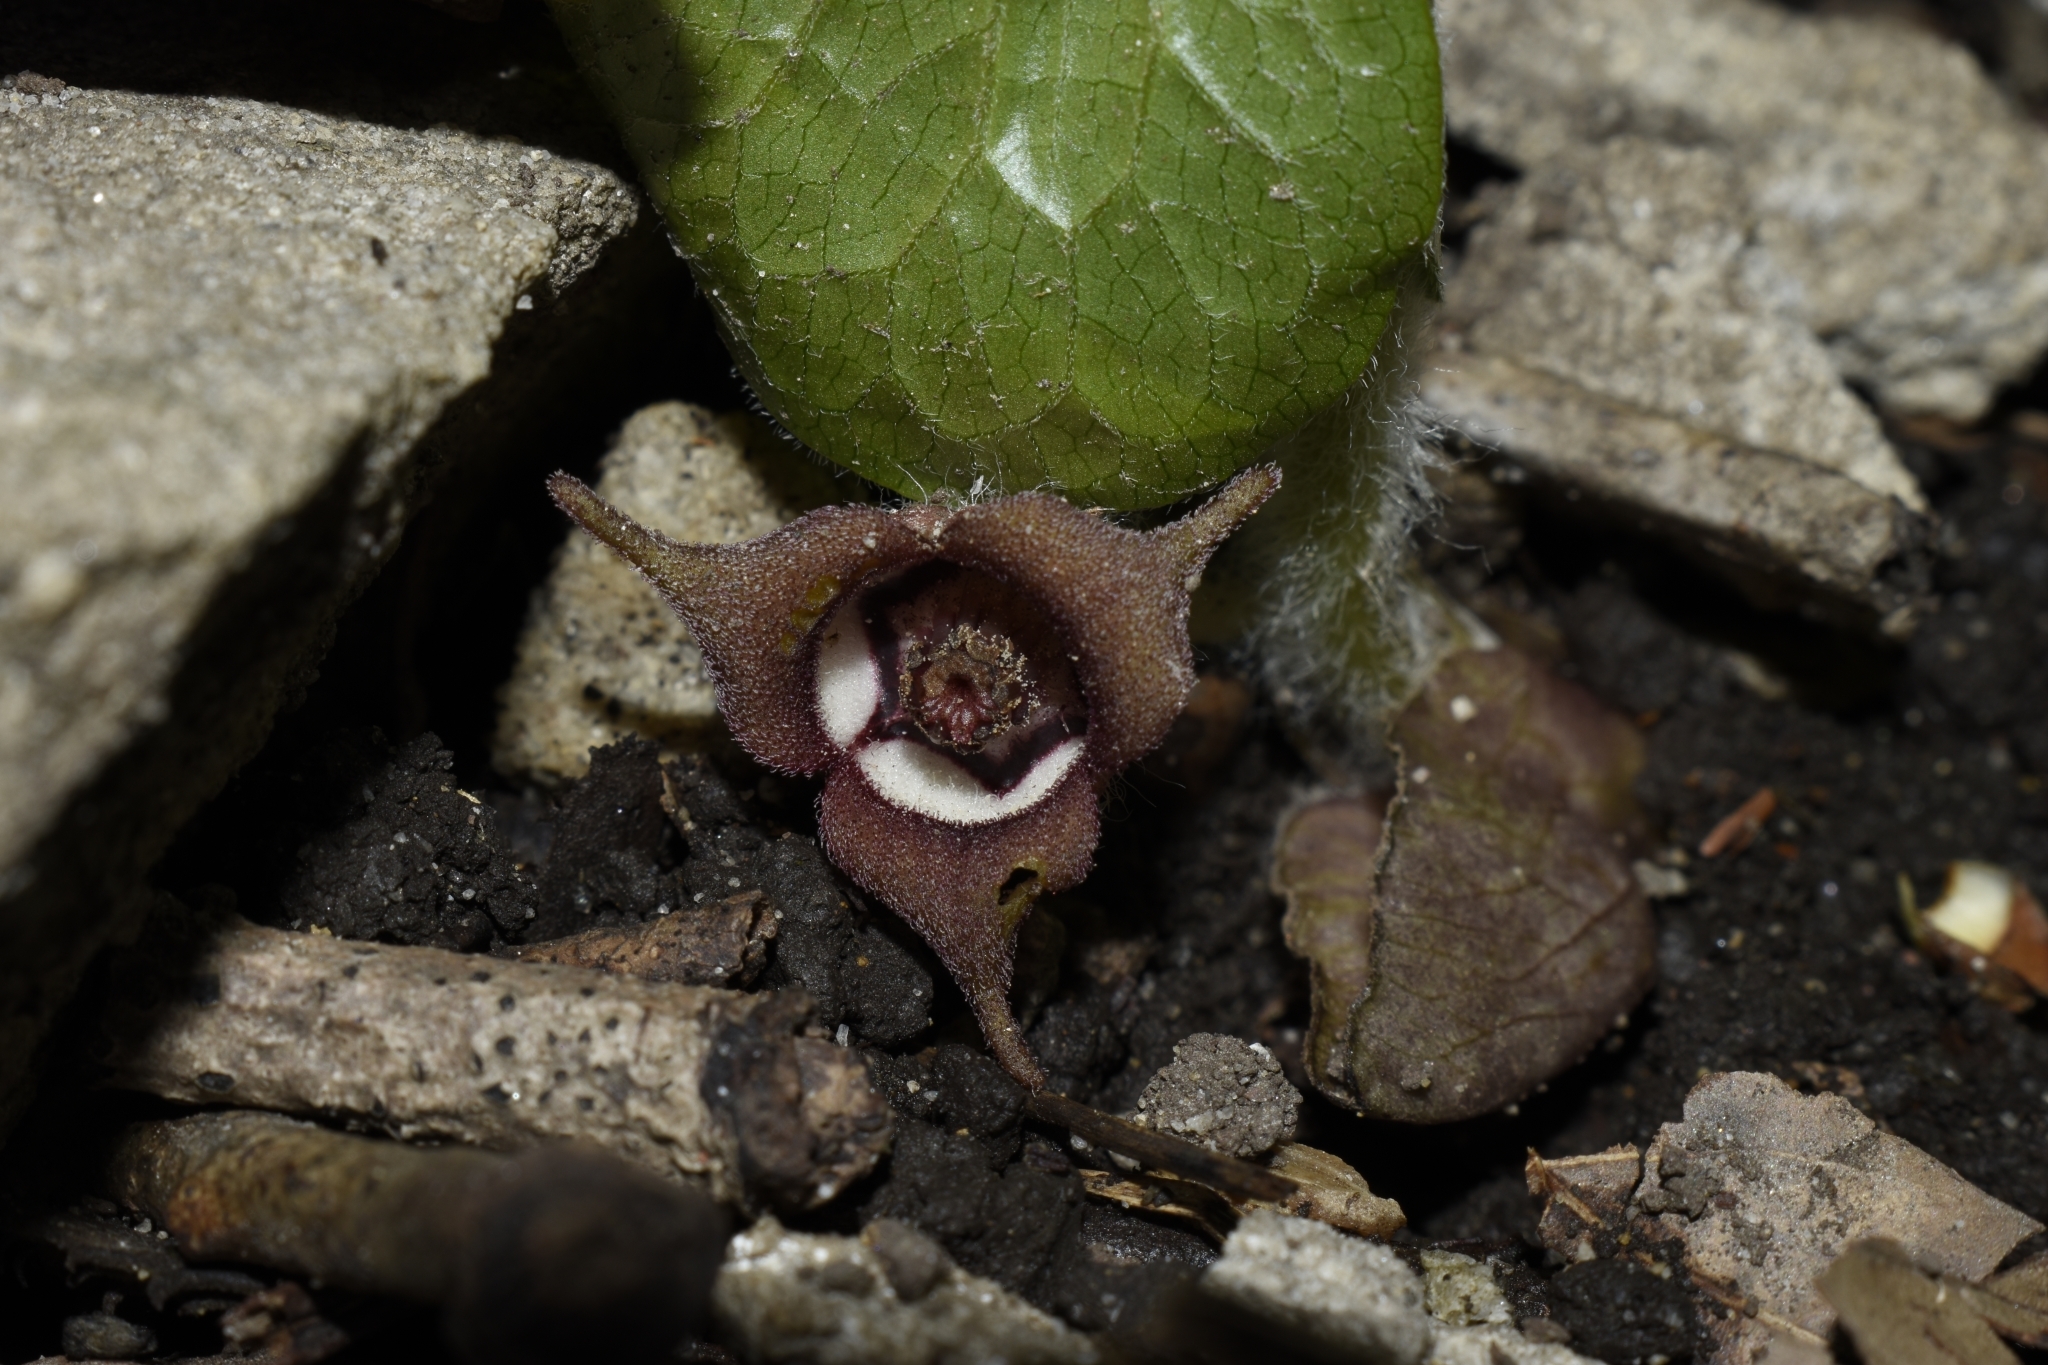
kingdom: Plantae
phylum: Tracheophyta
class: Magnoliopsida
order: Piperales
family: Aristolochiaceae
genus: Asarum
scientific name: Asarum canadense
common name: Wild ginger
